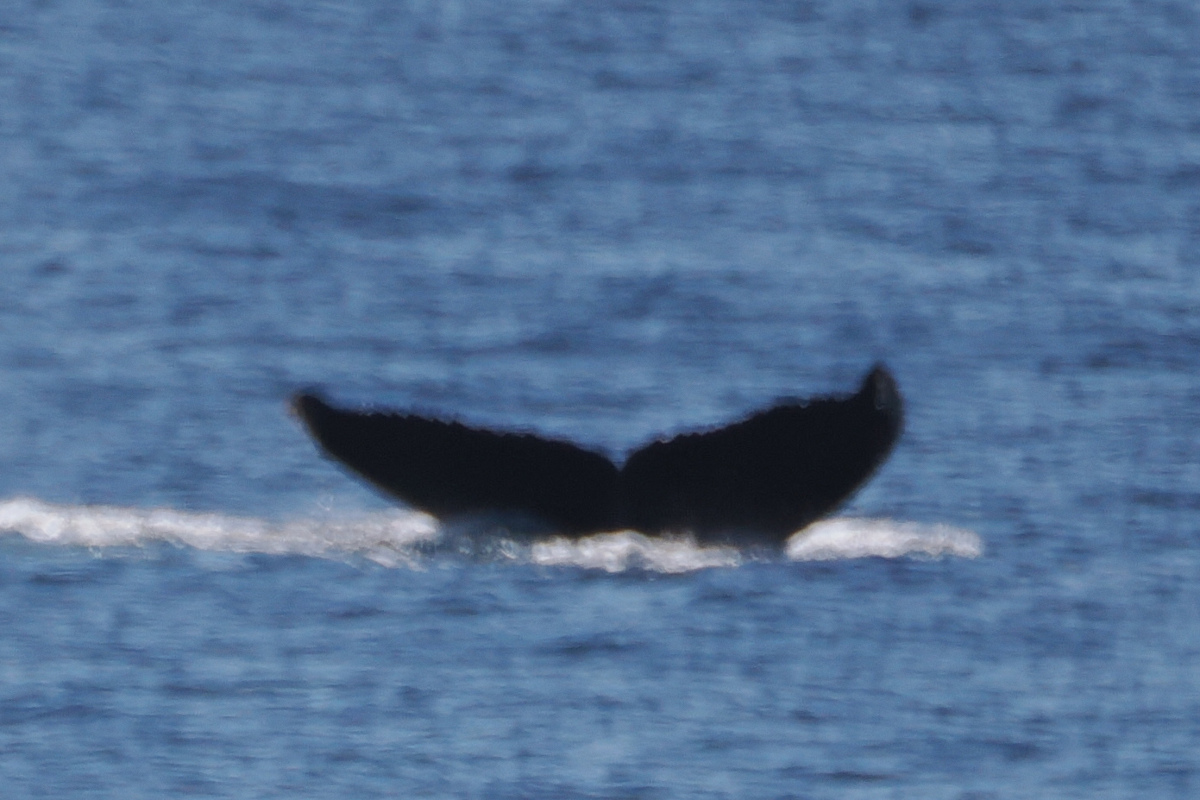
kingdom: Animalia
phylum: Chordata
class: Mammalia
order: Cetacea
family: Balaenopteridae
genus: Megaptera
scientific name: Megaptera novaeangliae
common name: Humpback whale
